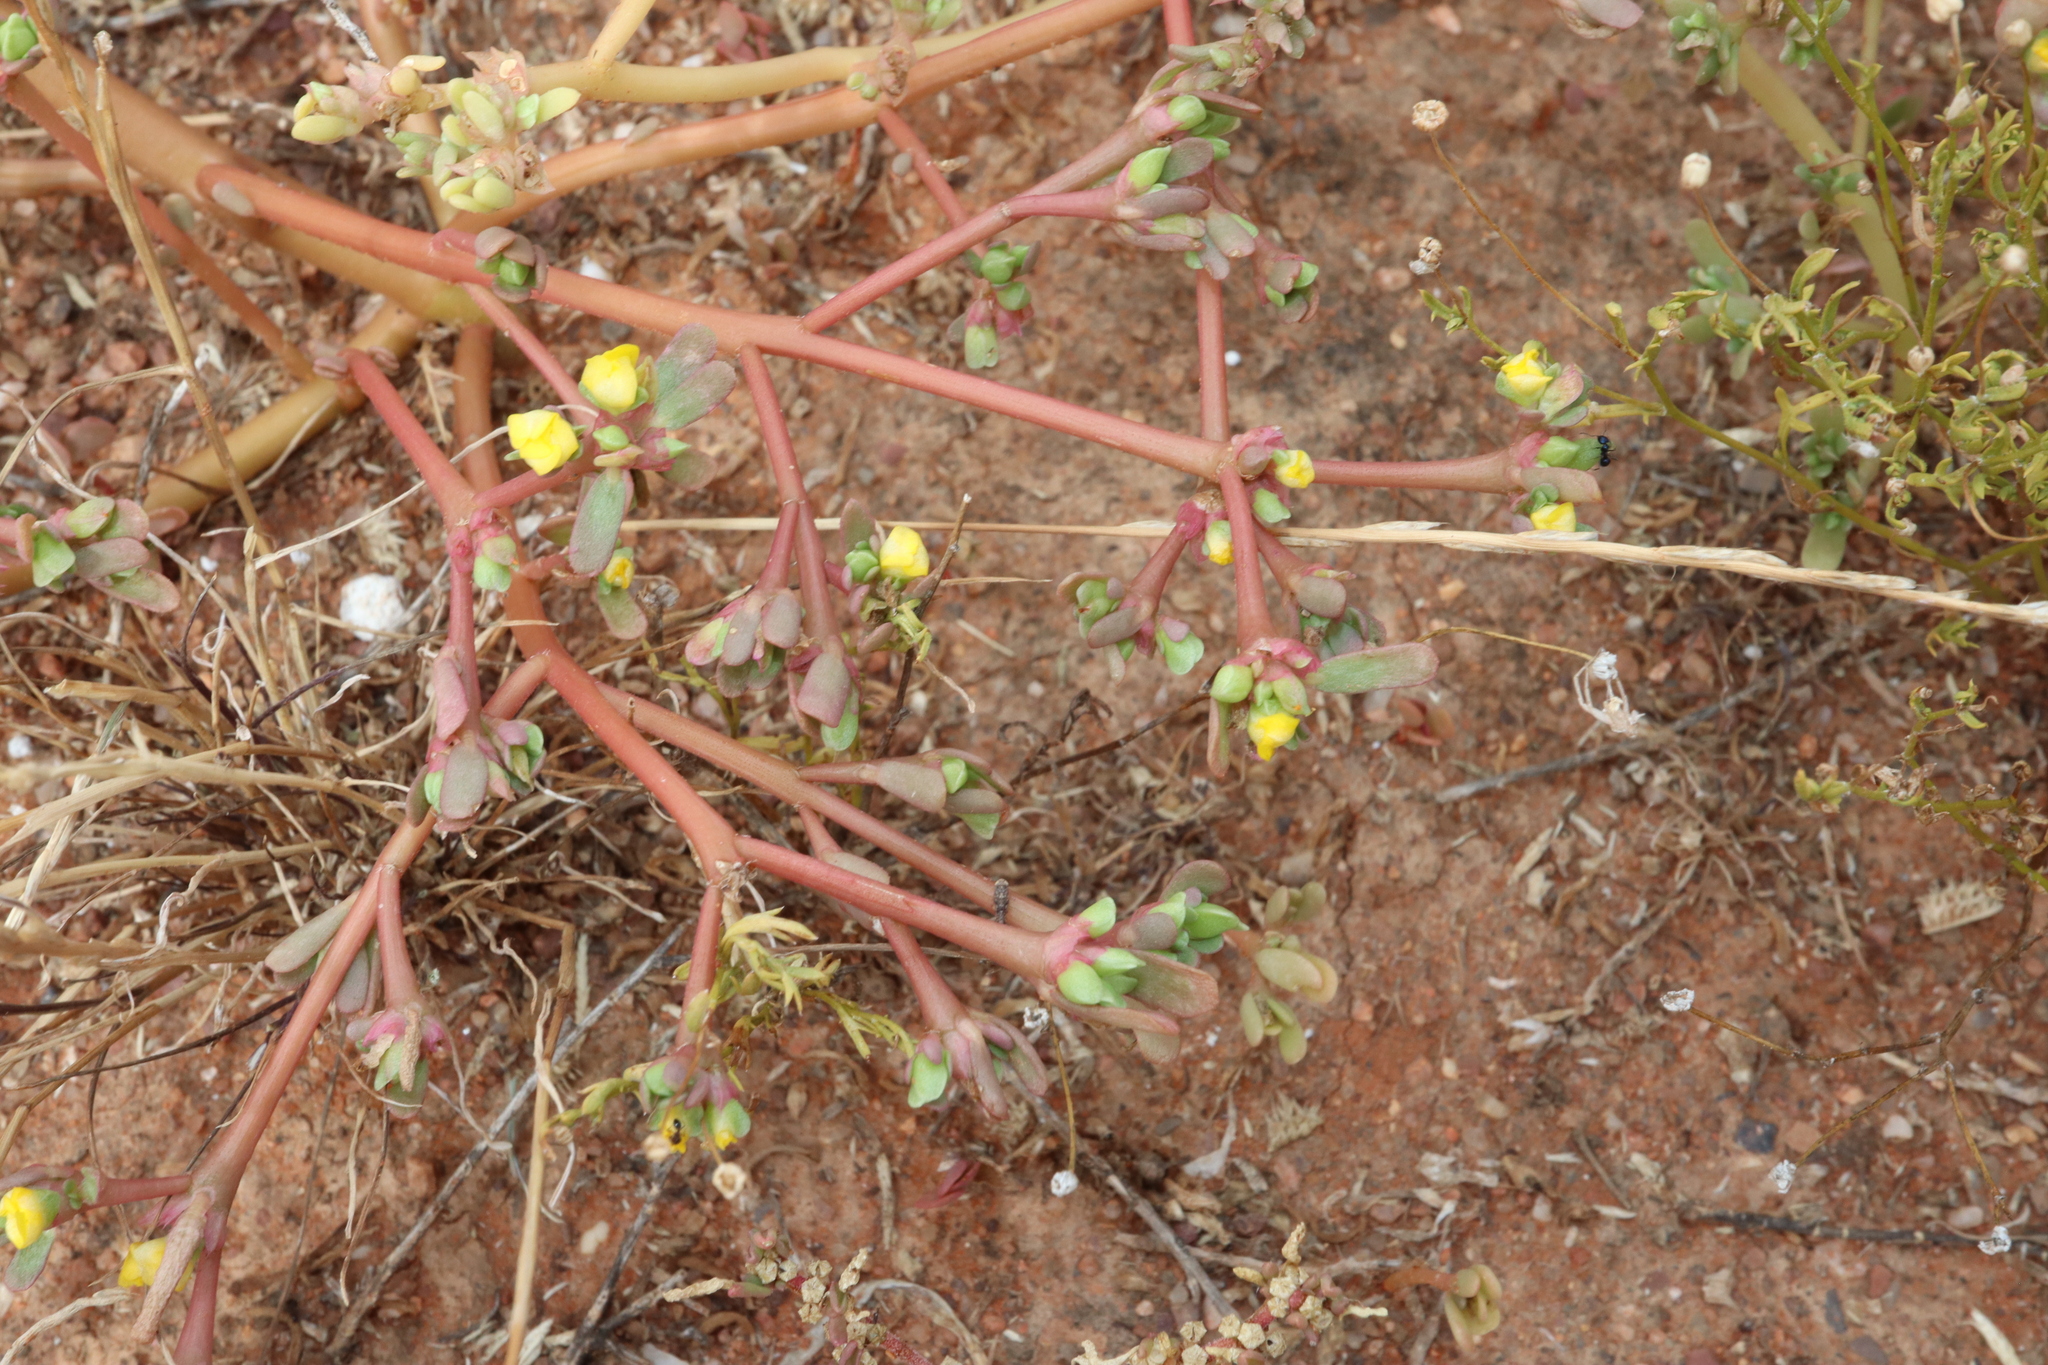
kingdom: Plantae
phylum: Tracheophyta
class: Magnoliopsida
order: Caryophyllales
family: Portulacaceae
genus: Portulaca
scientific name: Portulaca oleracea
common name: Common purslane
